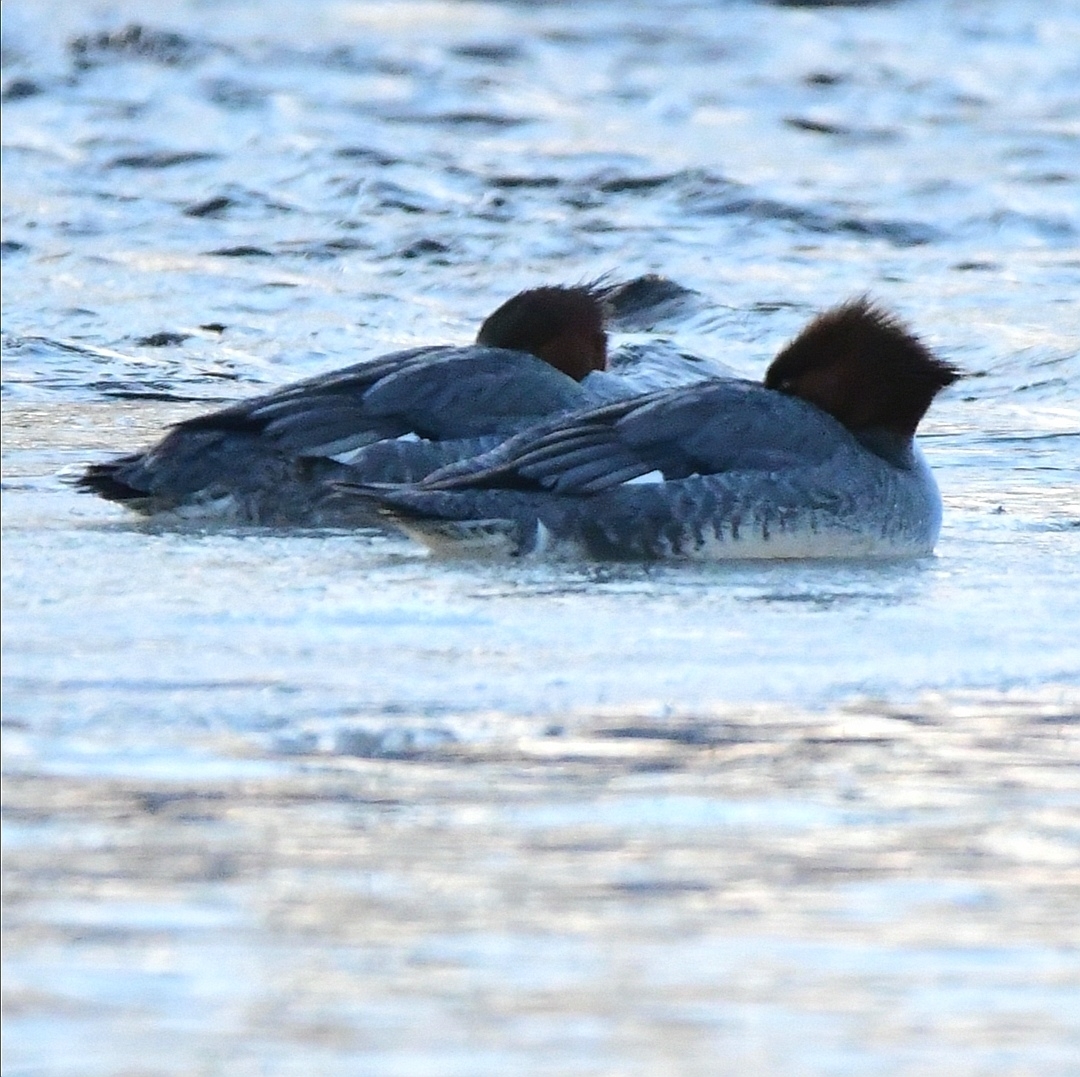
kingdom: Animalia
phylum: Chordata
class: Aves
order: Anseriformes
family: Anatidae
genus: Mergus
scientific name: Mergus merganser
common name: Common merganser
